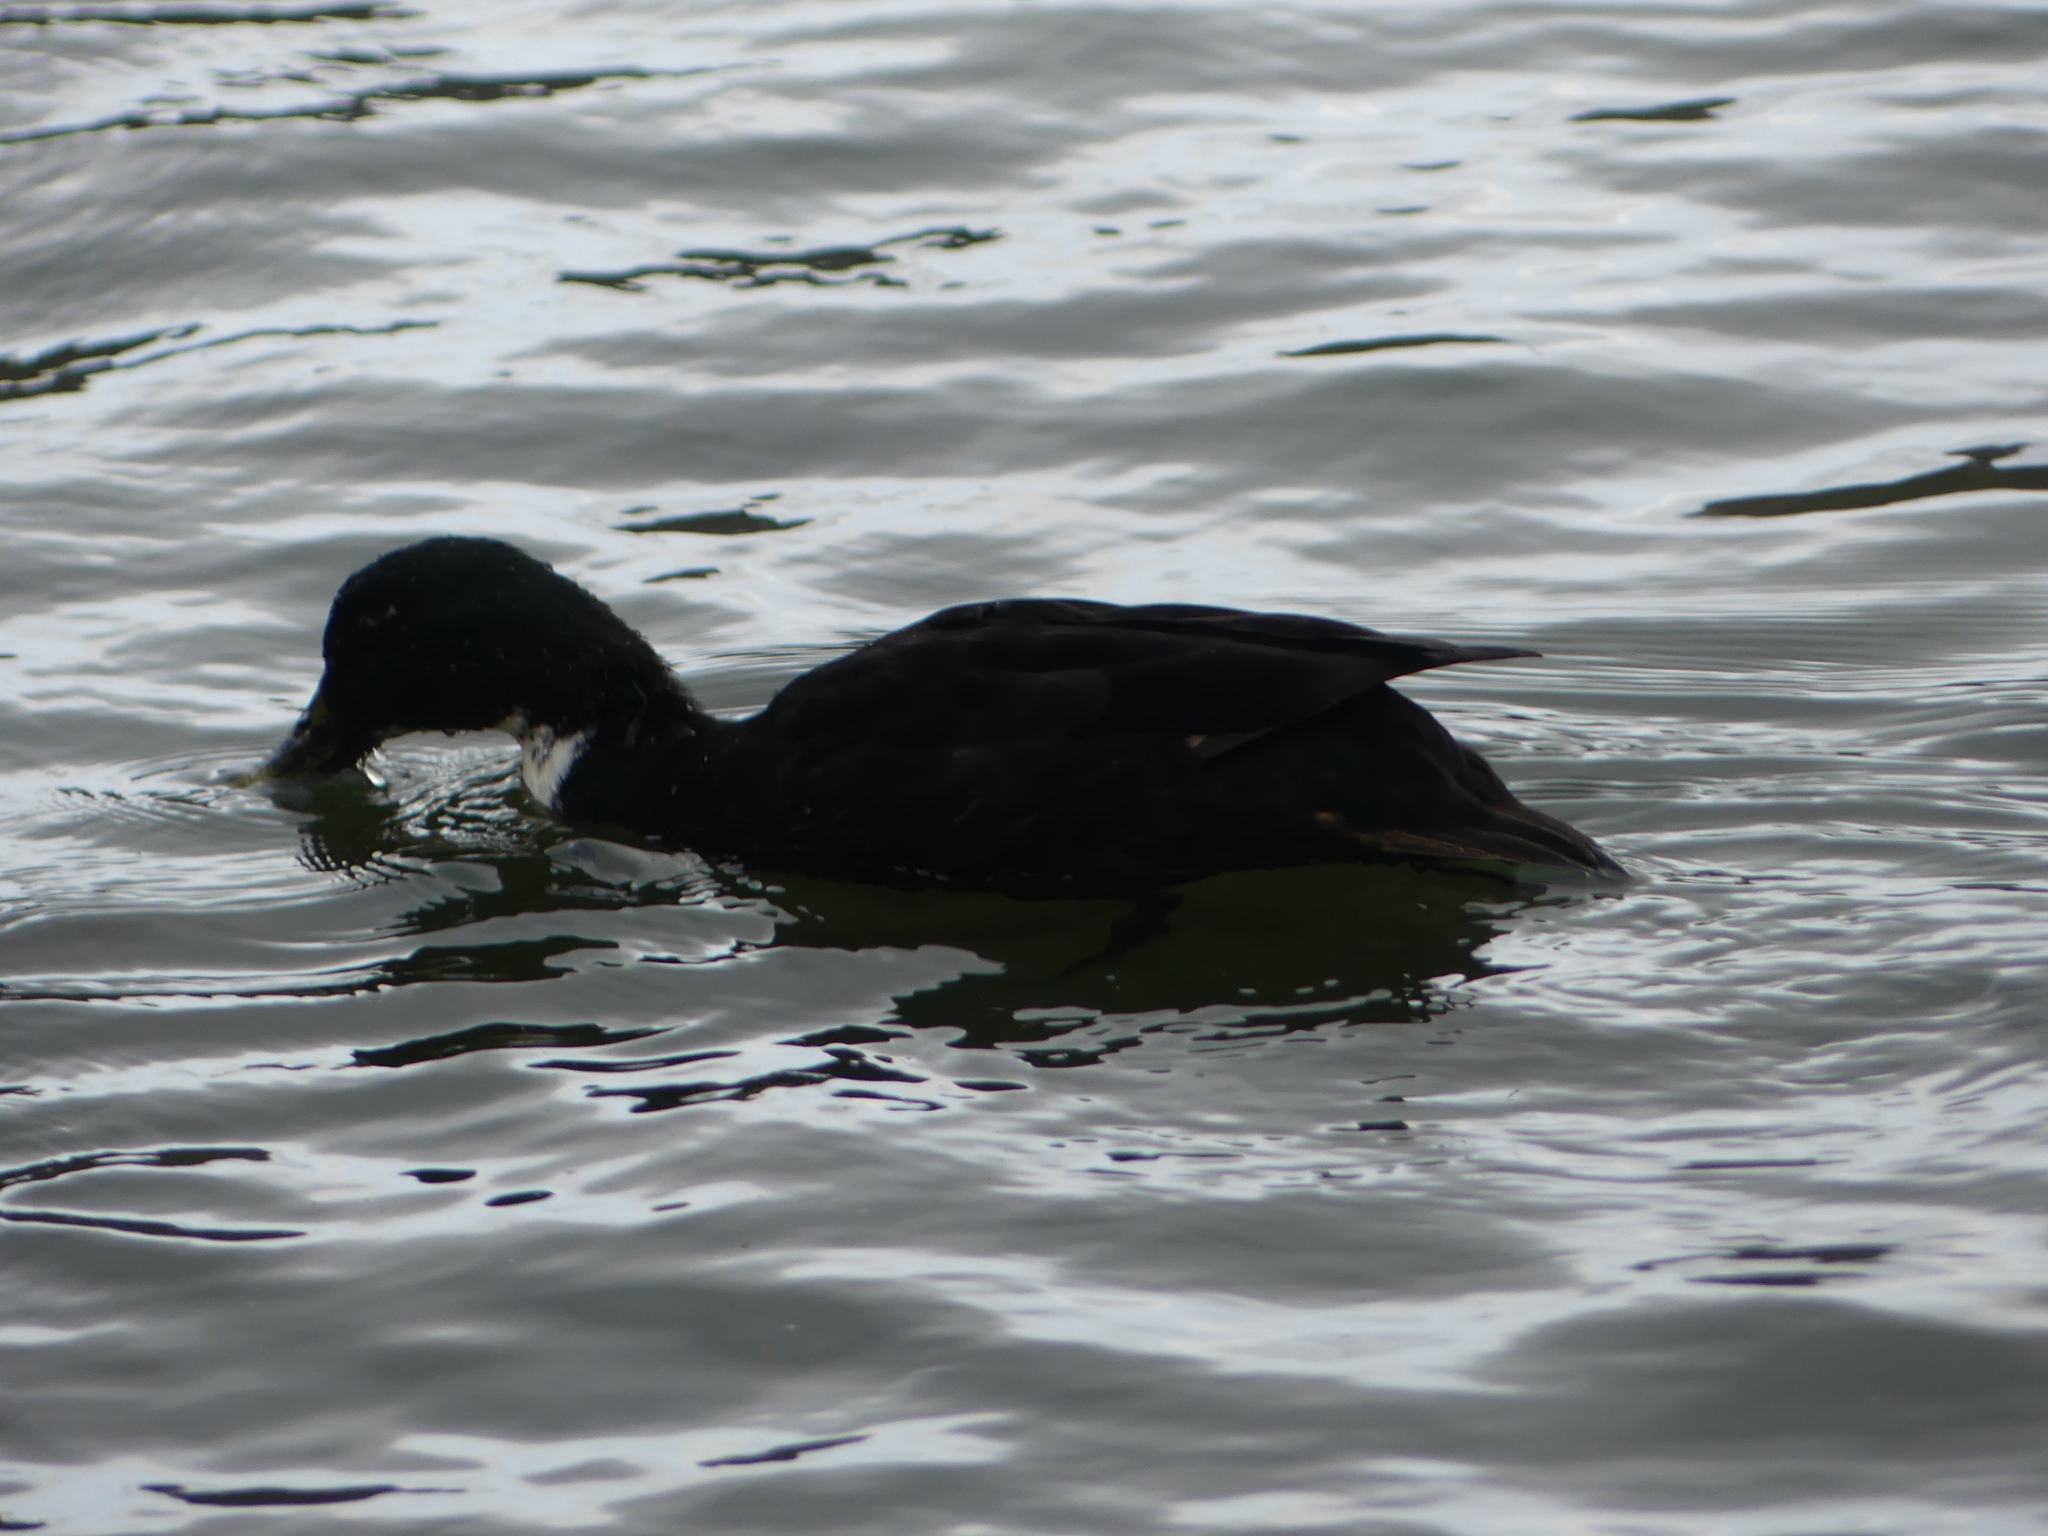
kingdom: Animalia
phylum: Chordata
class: Aves
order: Anseriformes
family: Anatidae
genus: Anas
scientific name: Anas platyrhynchos
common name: Mallard
